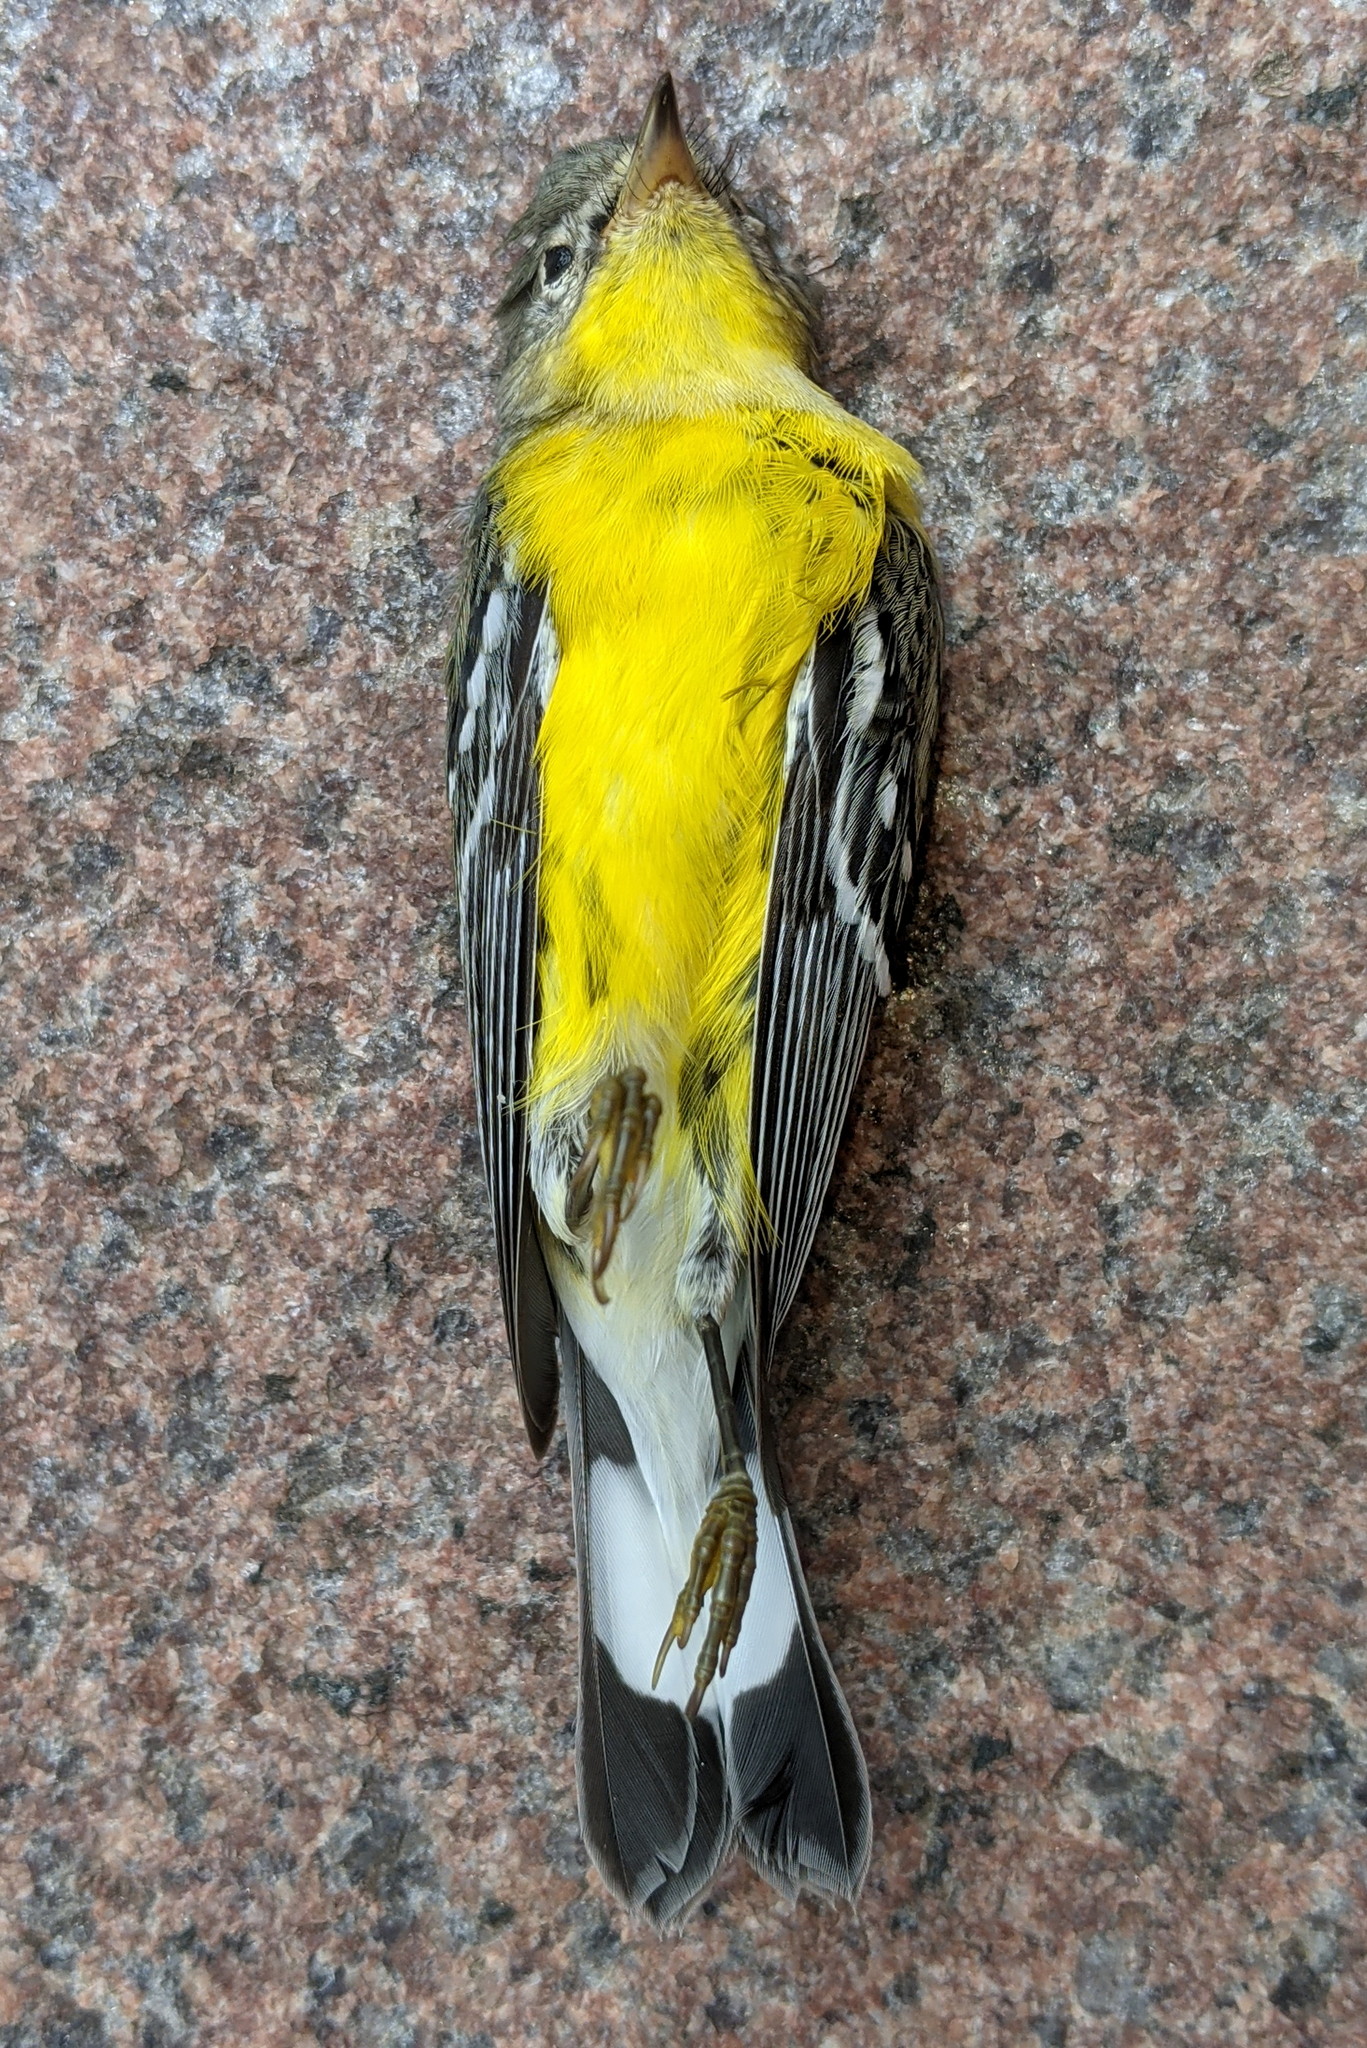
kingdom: Animalia
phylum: Chordata
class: Aves
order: Passeriformes
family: Parulidae
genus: Setophaga
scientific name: Setophaga magnolia
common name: Magnolia warbler
